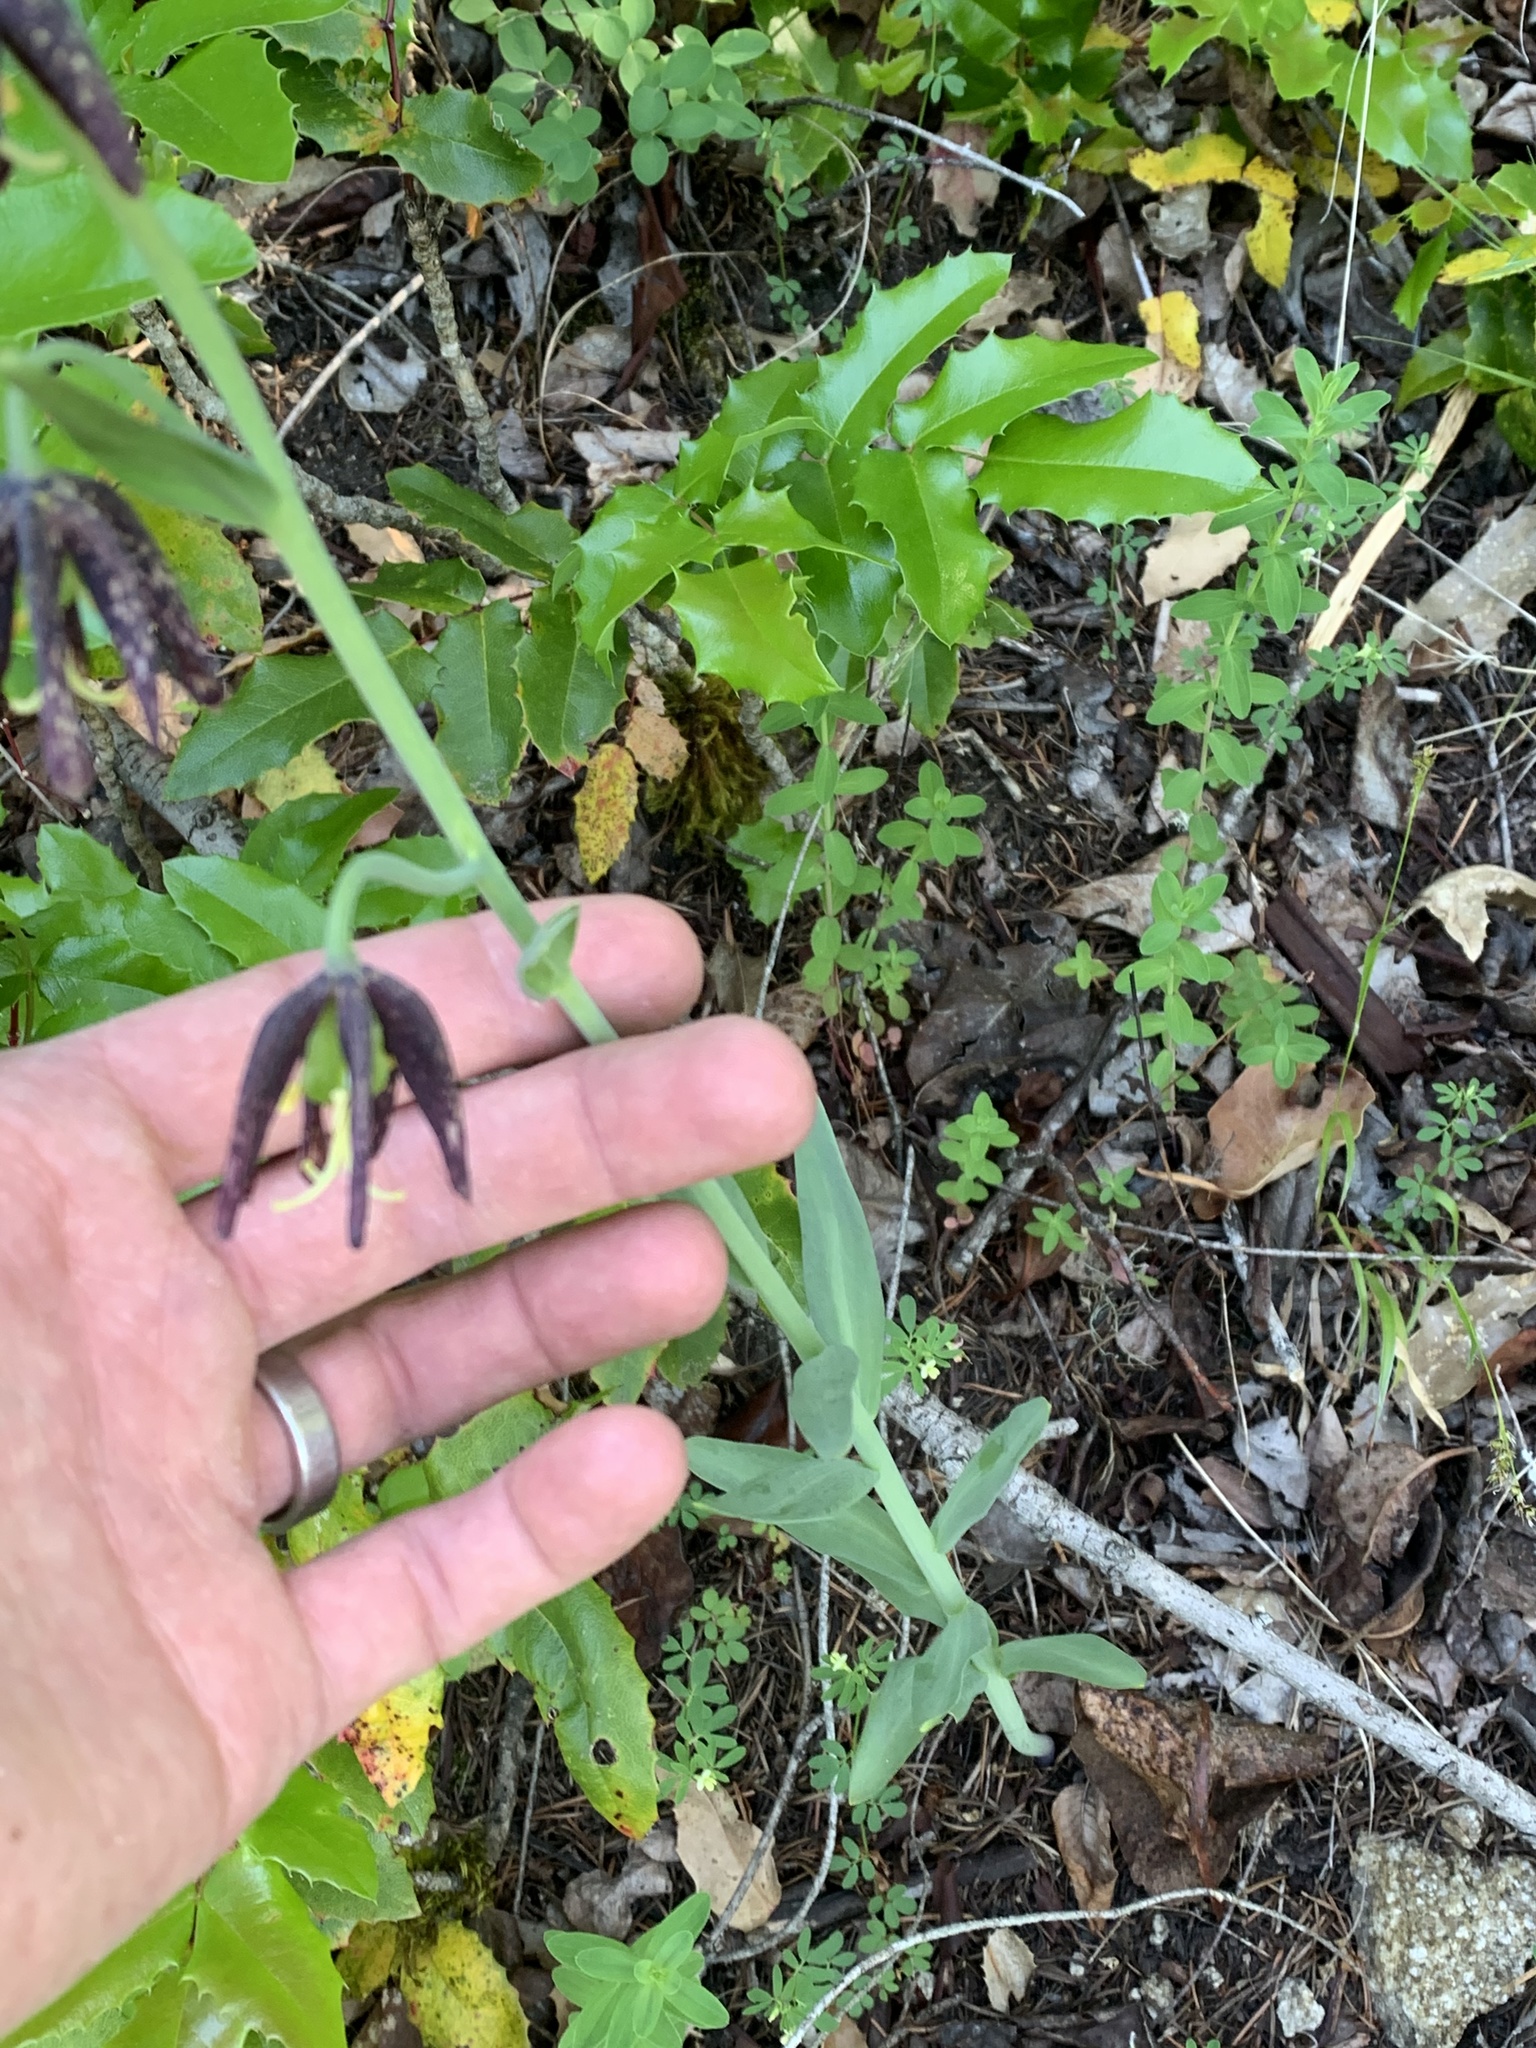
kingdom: Plantae
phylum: Tracheophyta
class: Liliopsida
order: Liliales
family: Liliaceae
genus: Fritillaria
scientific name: Fritillaria affinis
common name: Ojai fritillary
